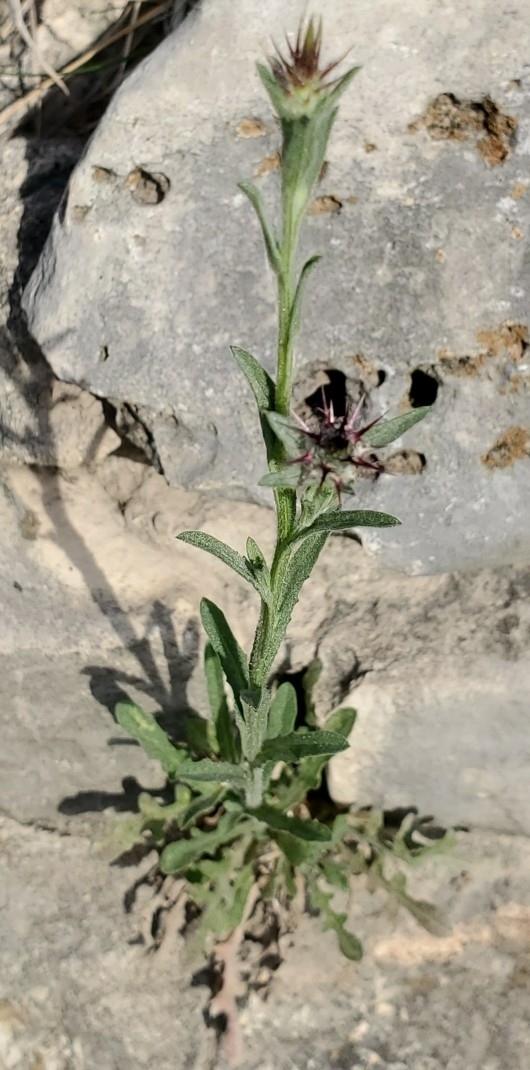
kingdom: Plantae
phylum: Tracheophyta
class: Magnoliopsida
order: Asterales
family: Asteraceae
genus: Centaurea
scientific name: Centaurea melitensis
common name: Maltese star-thistle
